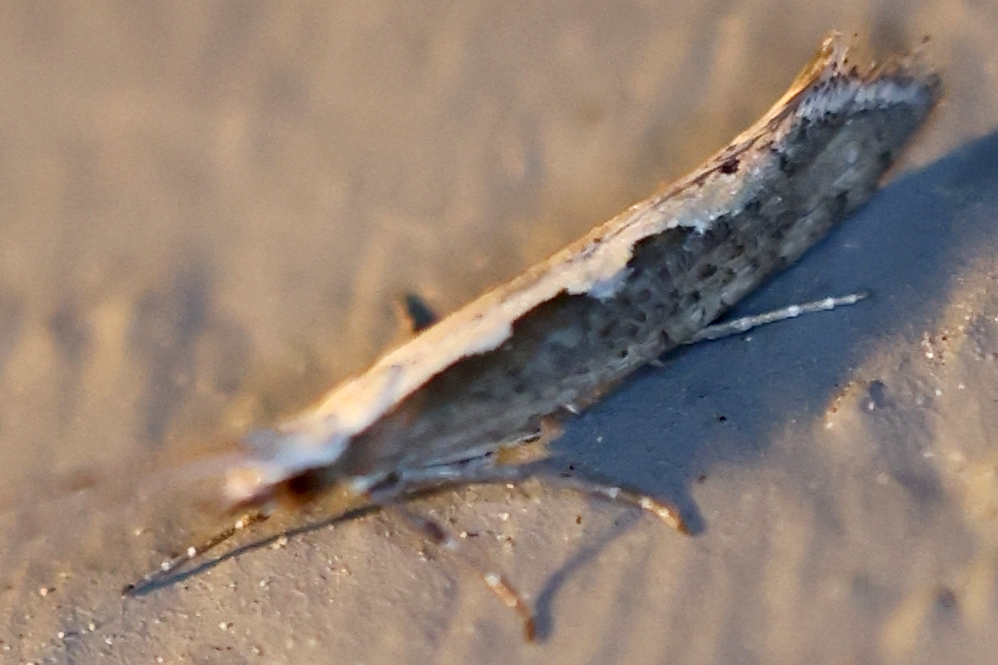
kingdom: Animalia
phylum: Arthropoda
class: Insecta
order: Lepidoptera
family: Plutellidae
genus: Plutella
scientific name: Plutella xylostella
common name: Diamond-back moth
